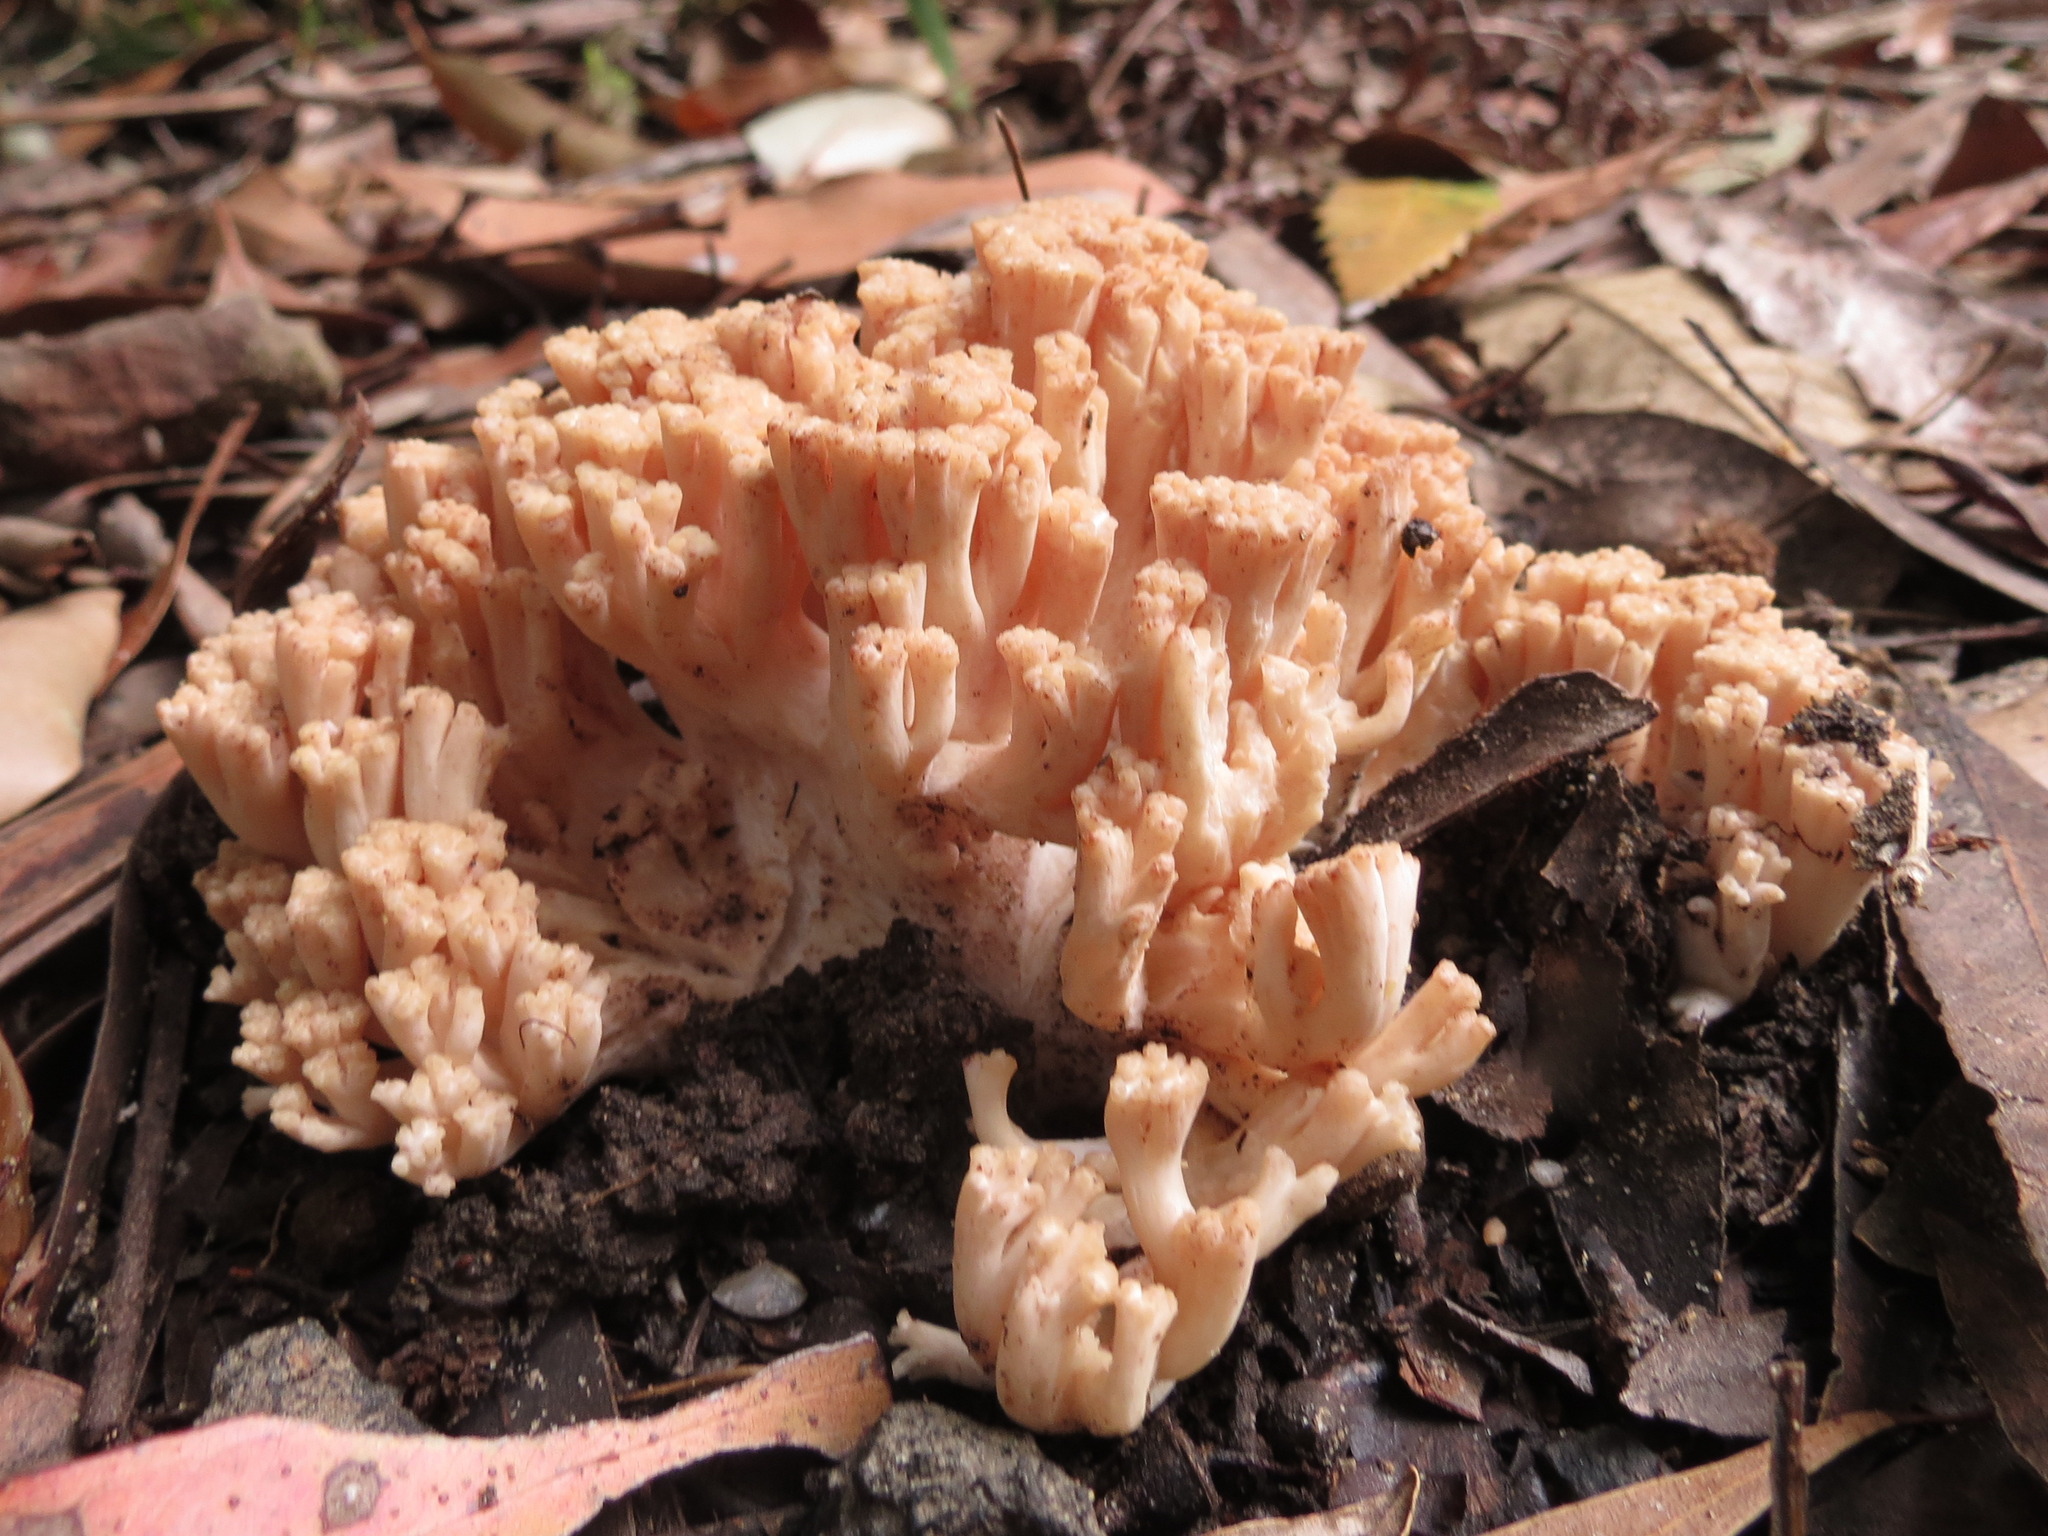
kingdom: Fungi
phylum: Basidiomycota
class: Agaricomycetes
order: Gomphales
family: Gomphaceae
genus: Ramaria
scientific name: Ramaria capitata
